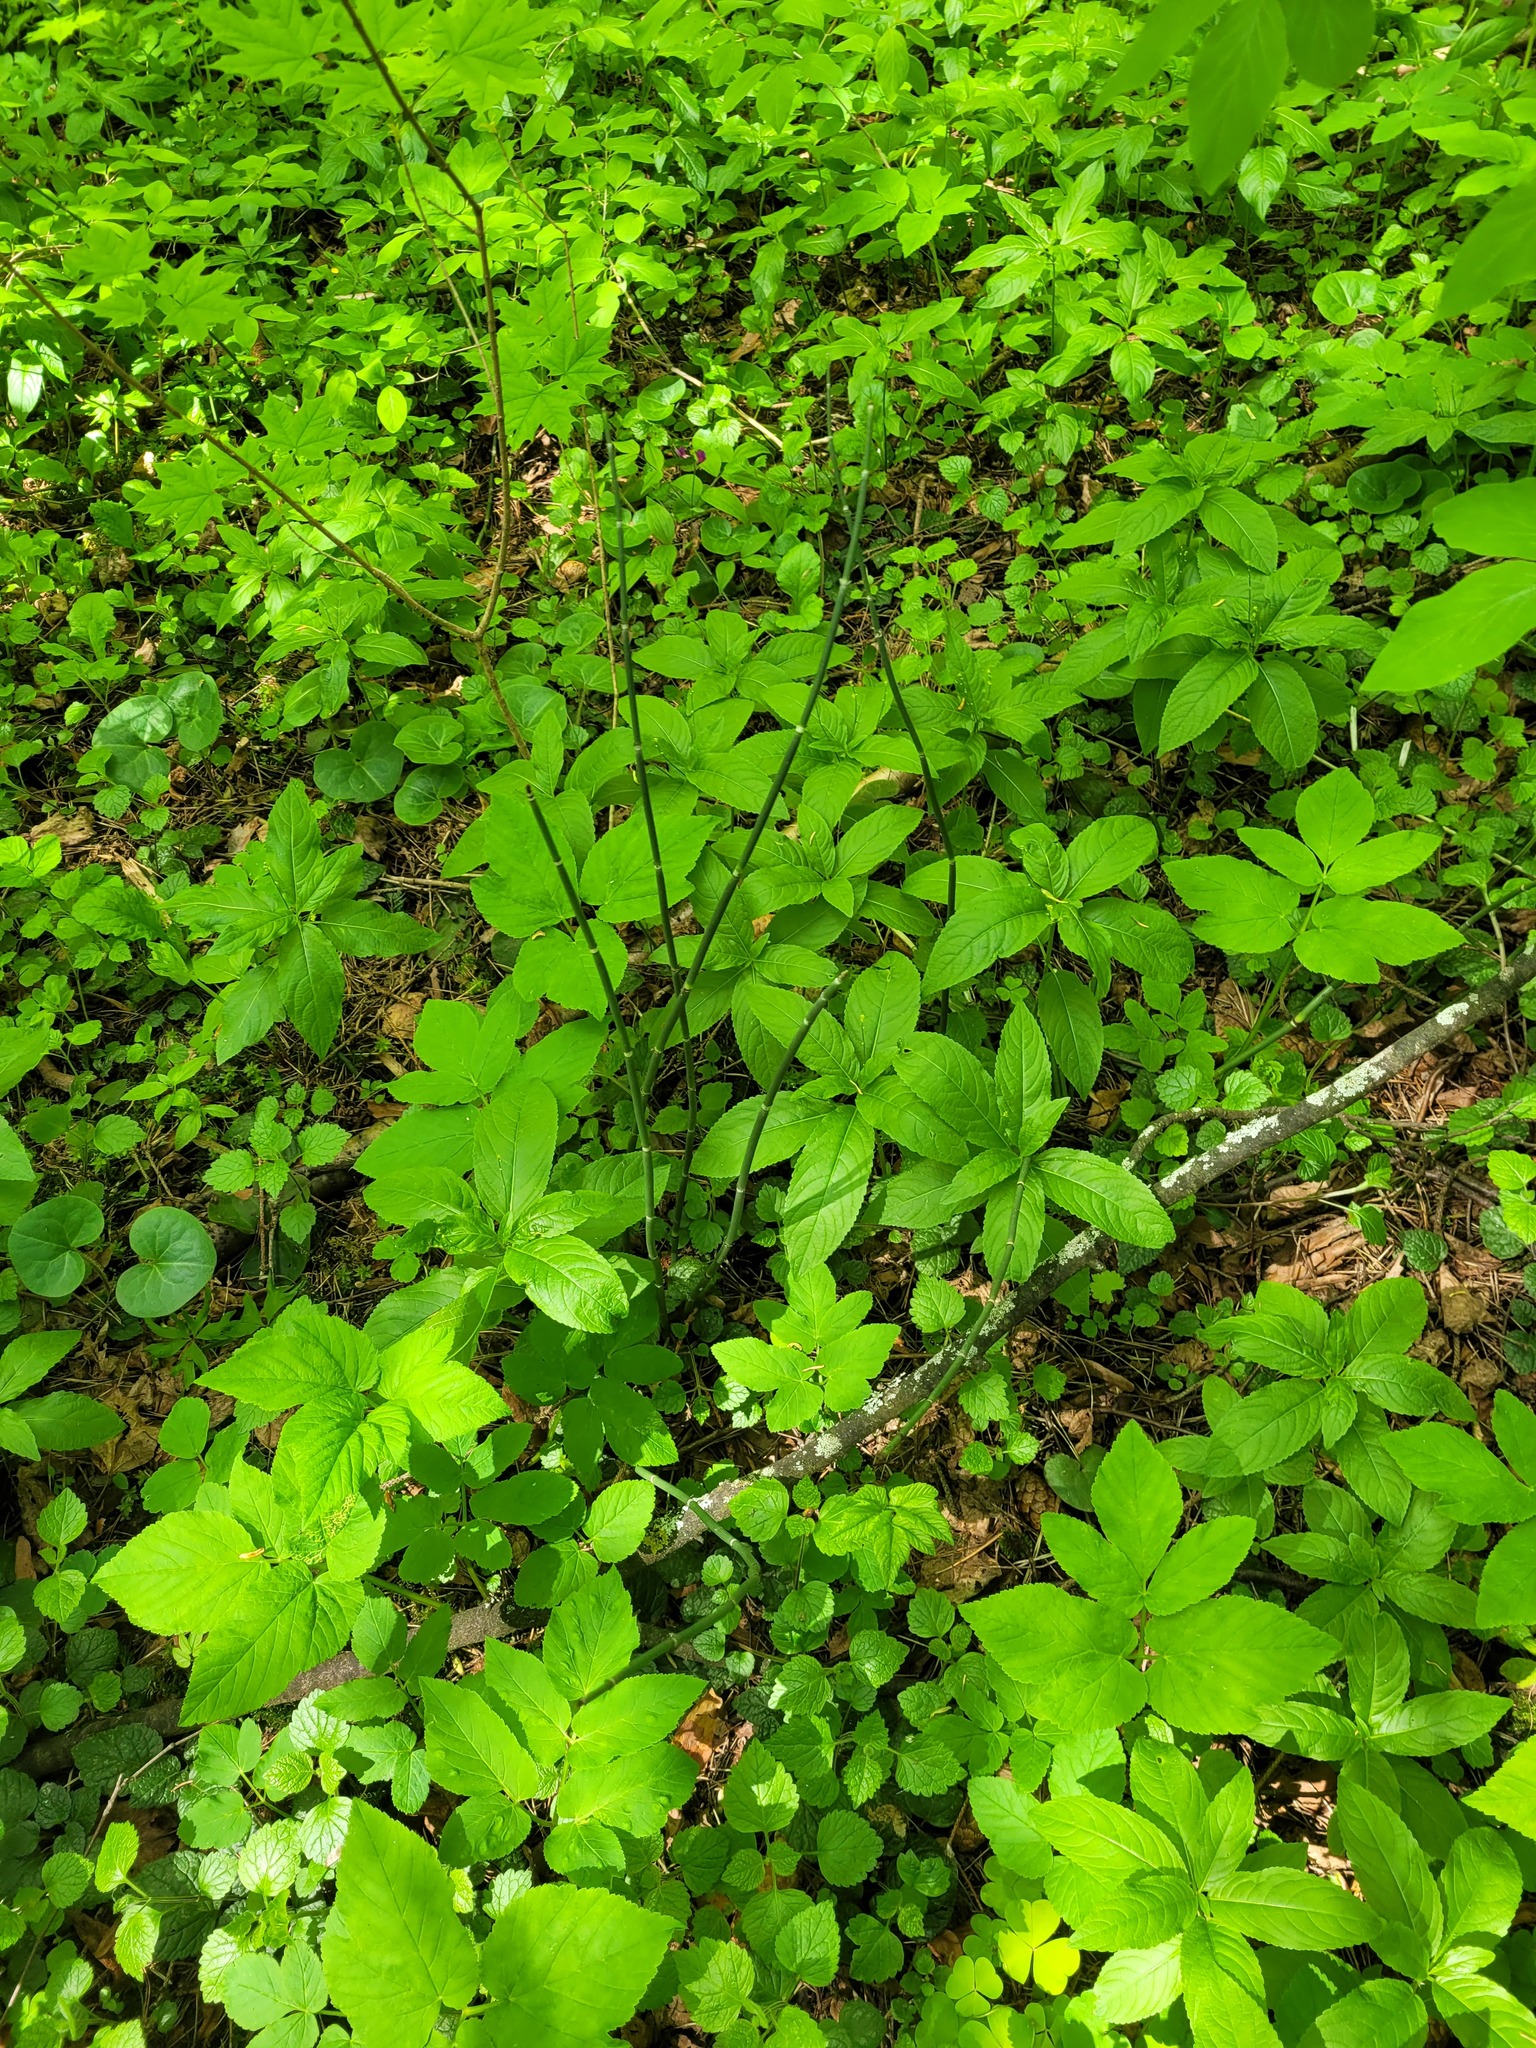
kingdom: Plantae
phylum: Tracheophyta
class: Polypodiopsida
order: Equisetales
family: Equisetaceae
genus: Equisetum
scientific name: Equisetum hyemale
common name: Rough horsetail
